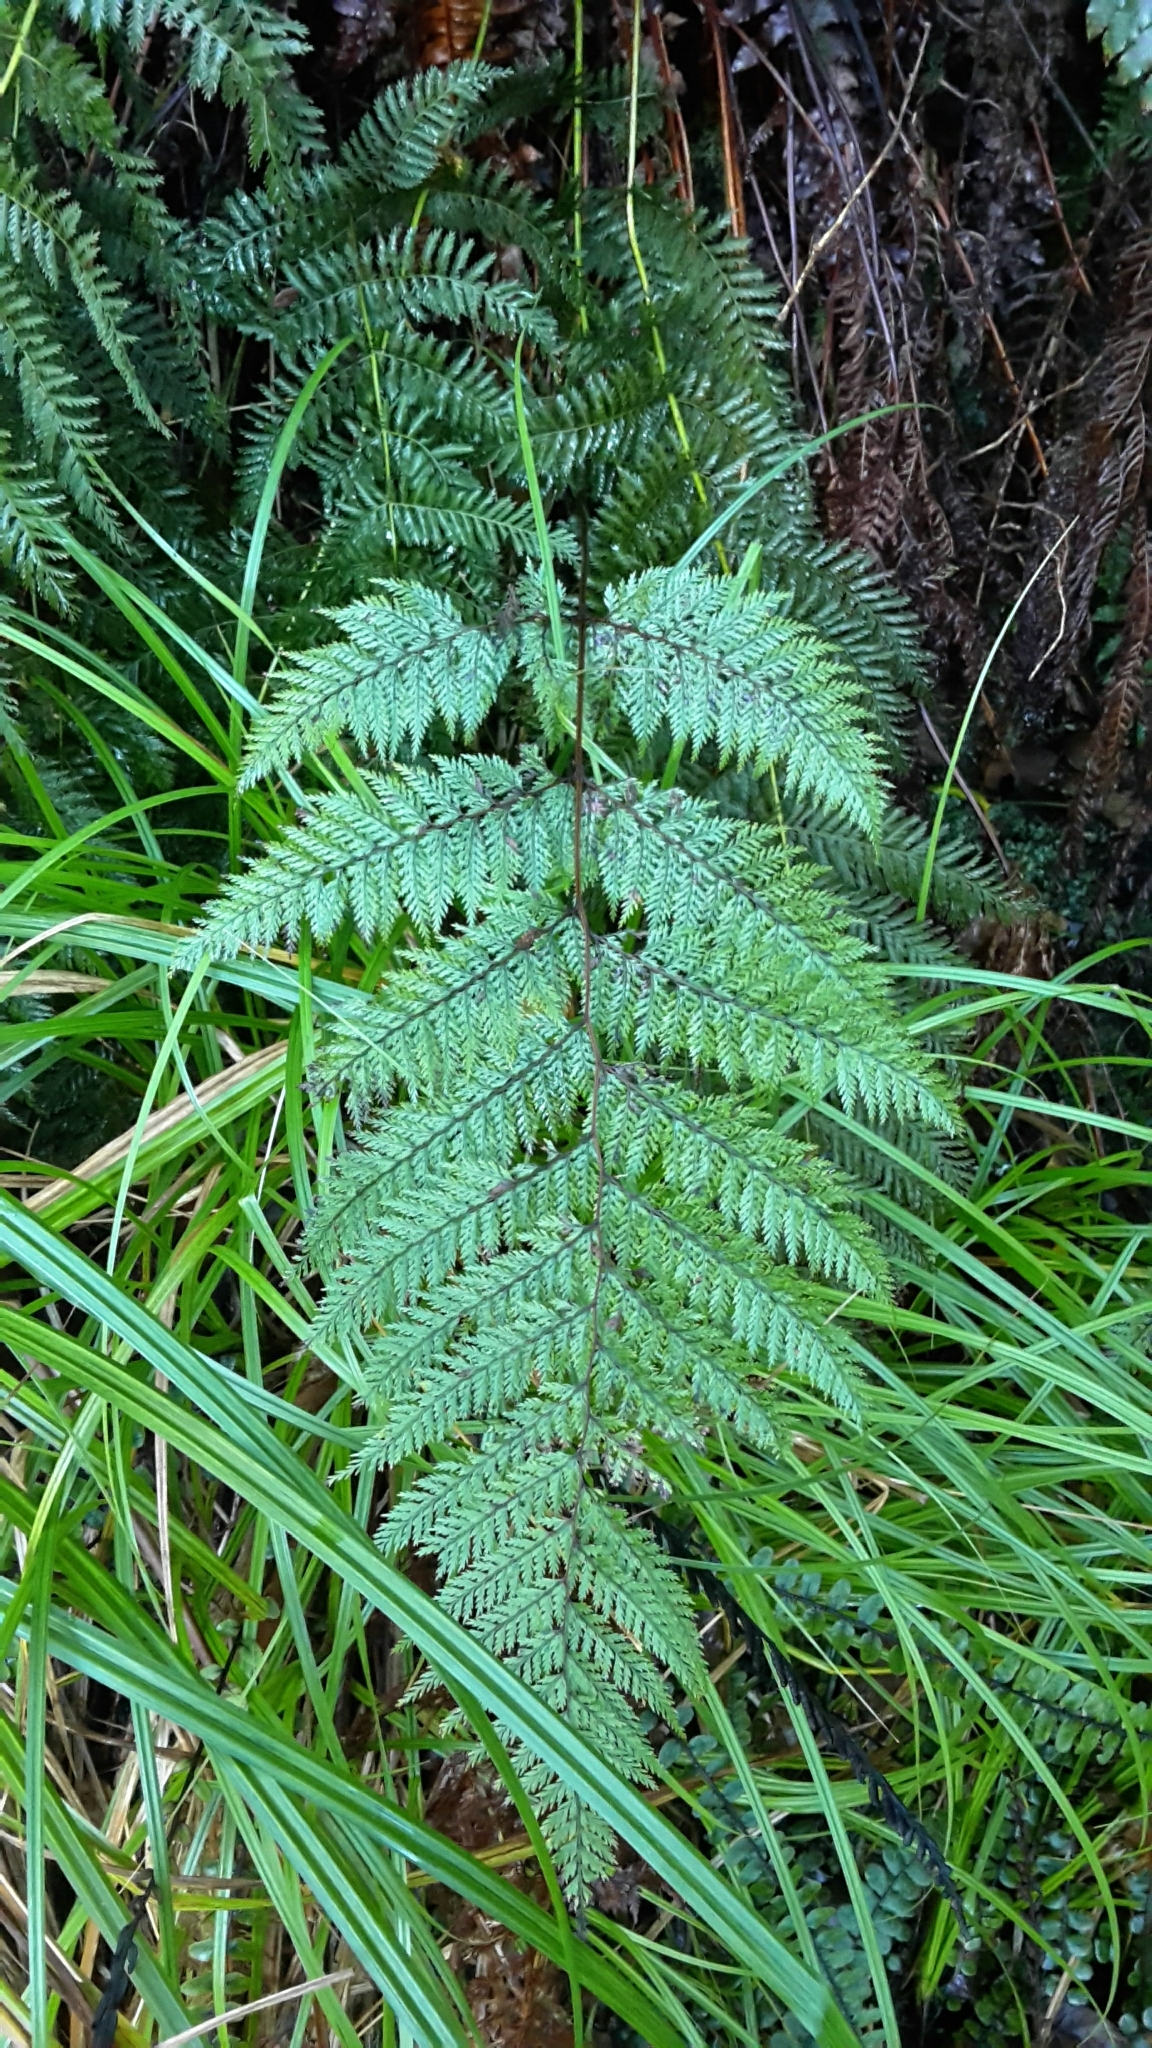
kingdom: Plantae
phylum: Tracheophyta
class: Polypodiopsida
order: Polypodiales
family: Dennstaedtiaceae
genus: Dennstaedtia
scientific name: Dennstaedtia novae-zelandiae
